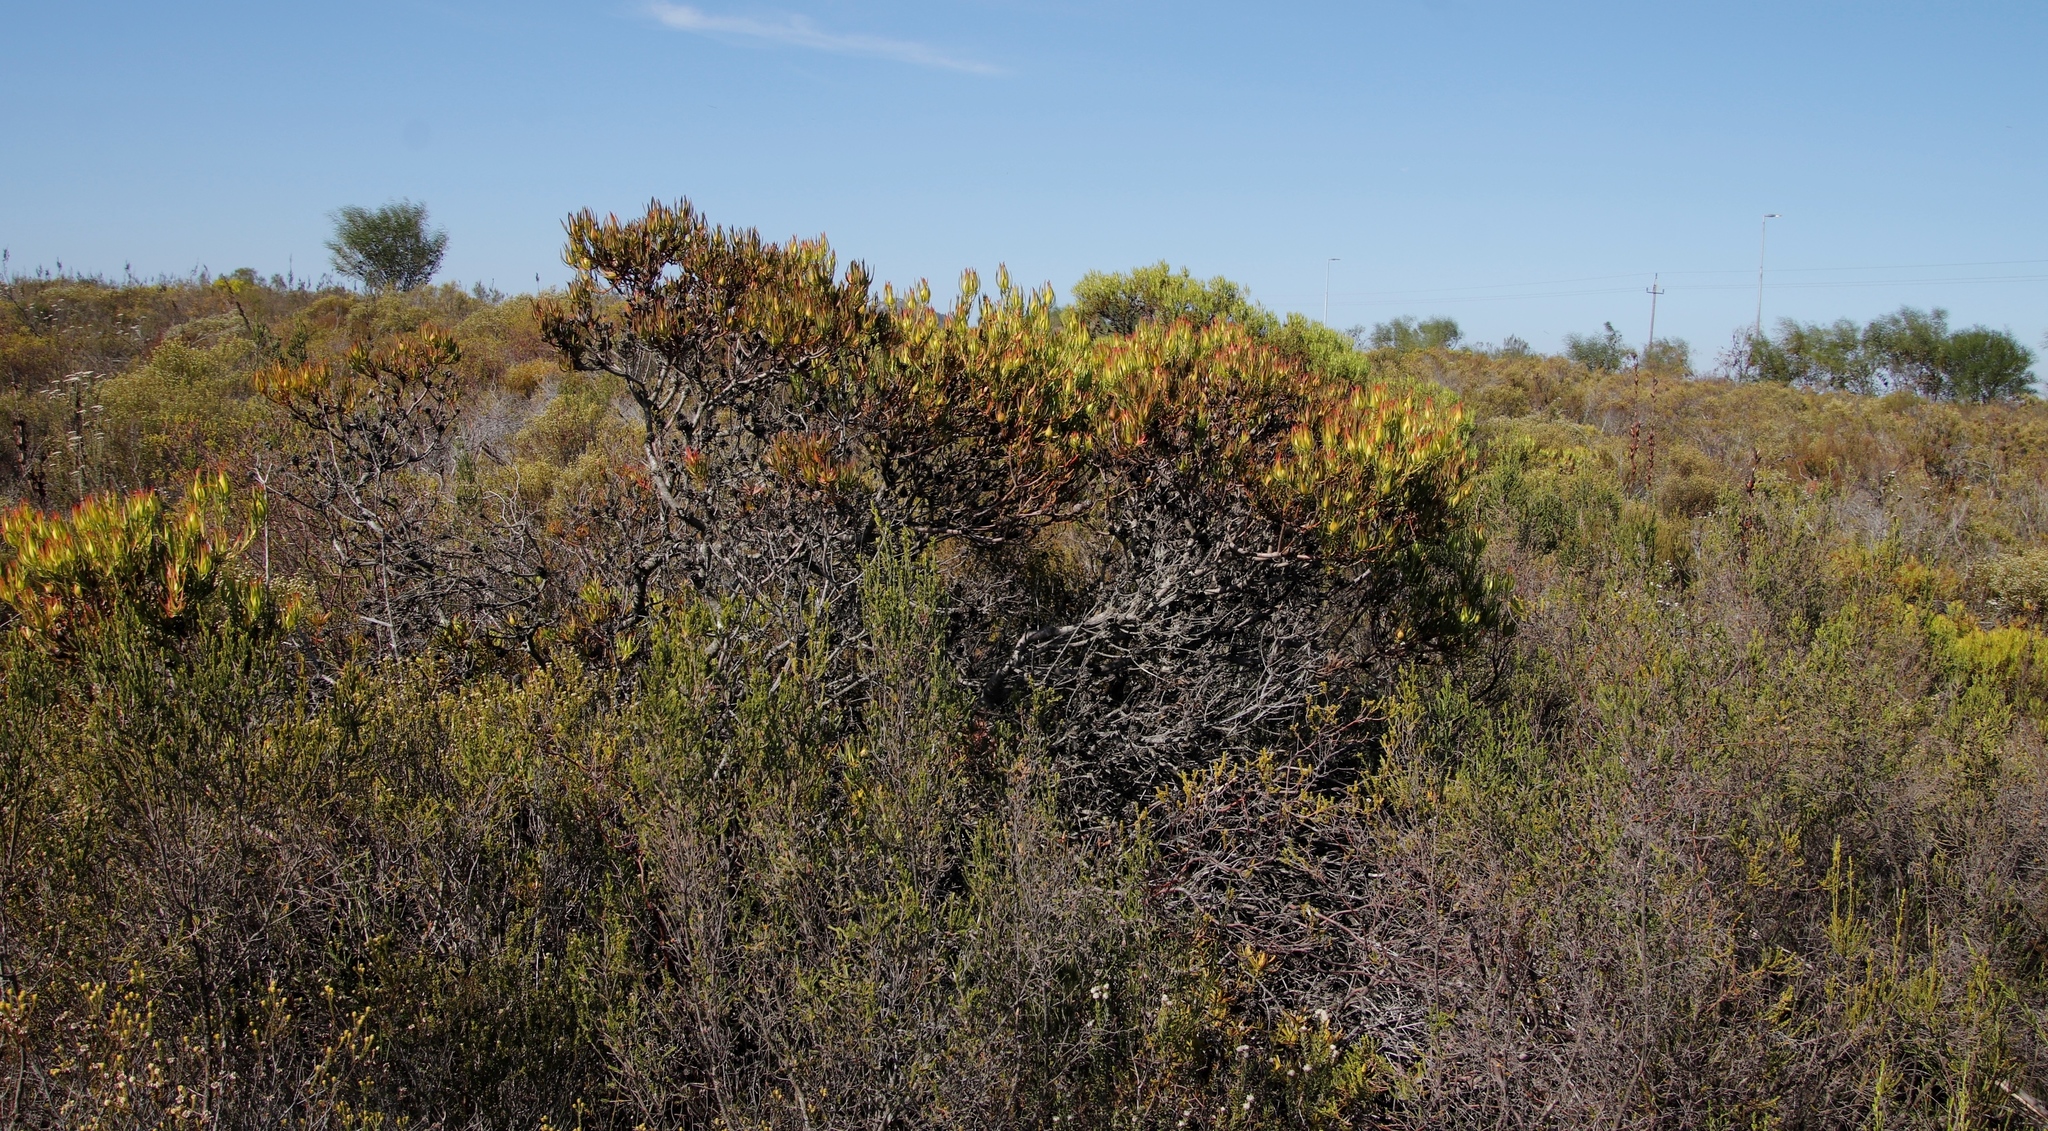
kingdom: Plantae
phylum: Tracheophyta
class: Magnoliopsida
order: Proteales
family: Proteaceae
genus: Leucadendron
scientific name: Leucadendron salignum
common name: Common sunshine conebush
